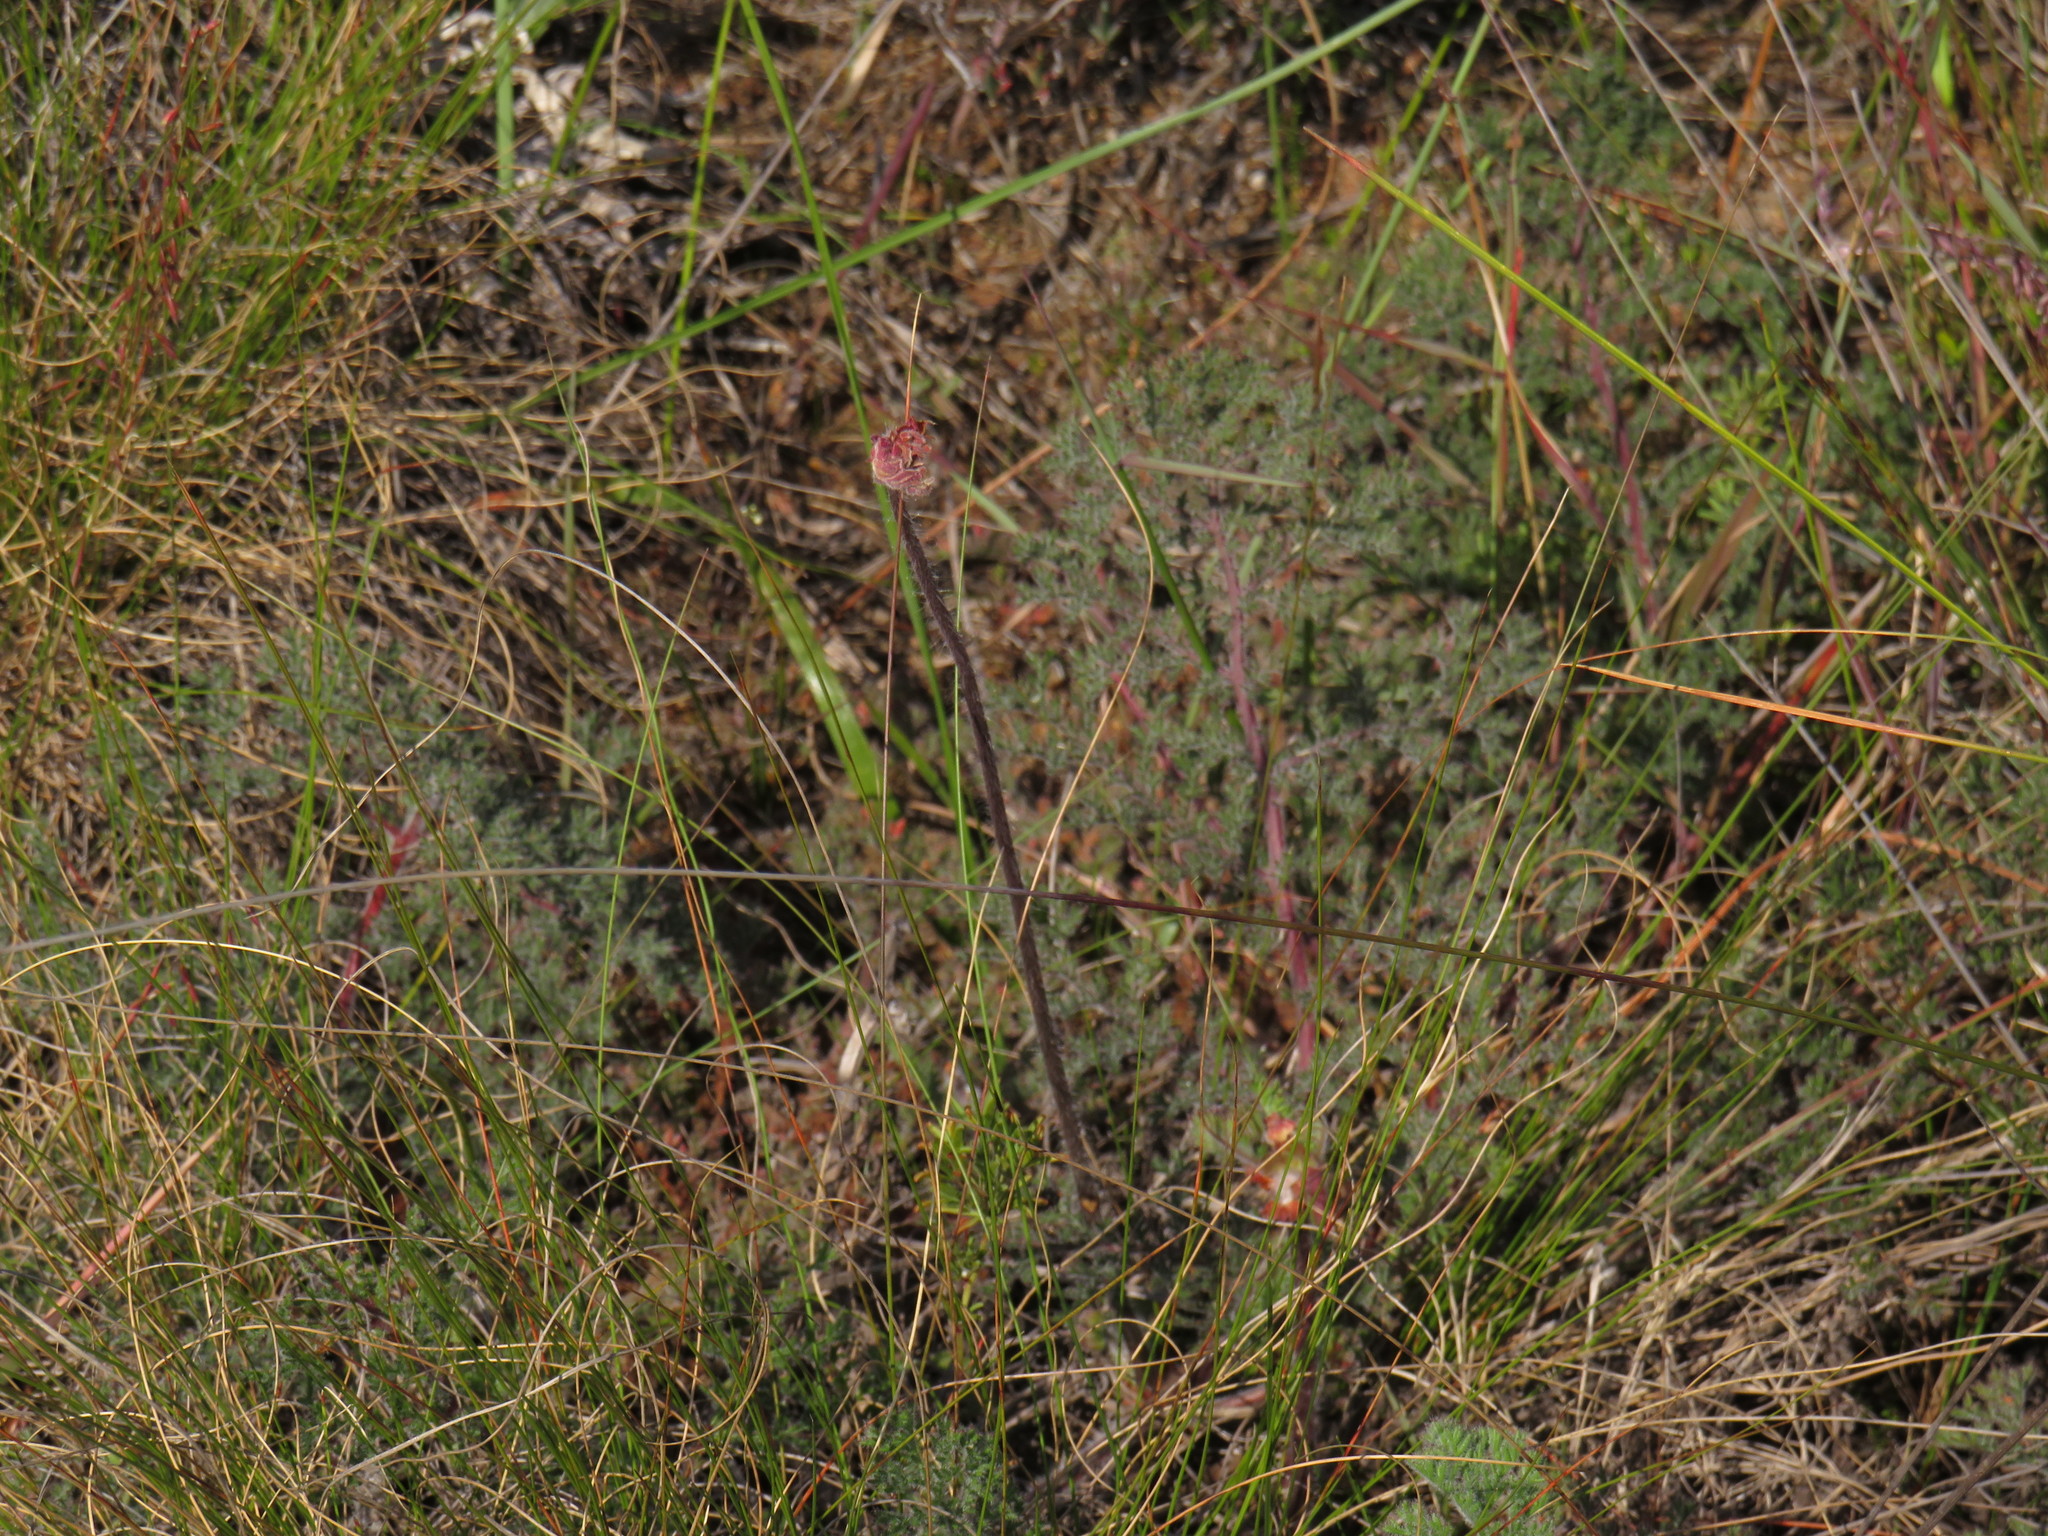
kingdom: Plantae
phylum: Tracheophyta
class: Magnoliopsida
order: Geraniales
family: Geraniaceae
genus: Pelargonium
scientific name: Pelargonium triste
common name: Night-scent pelargonium
